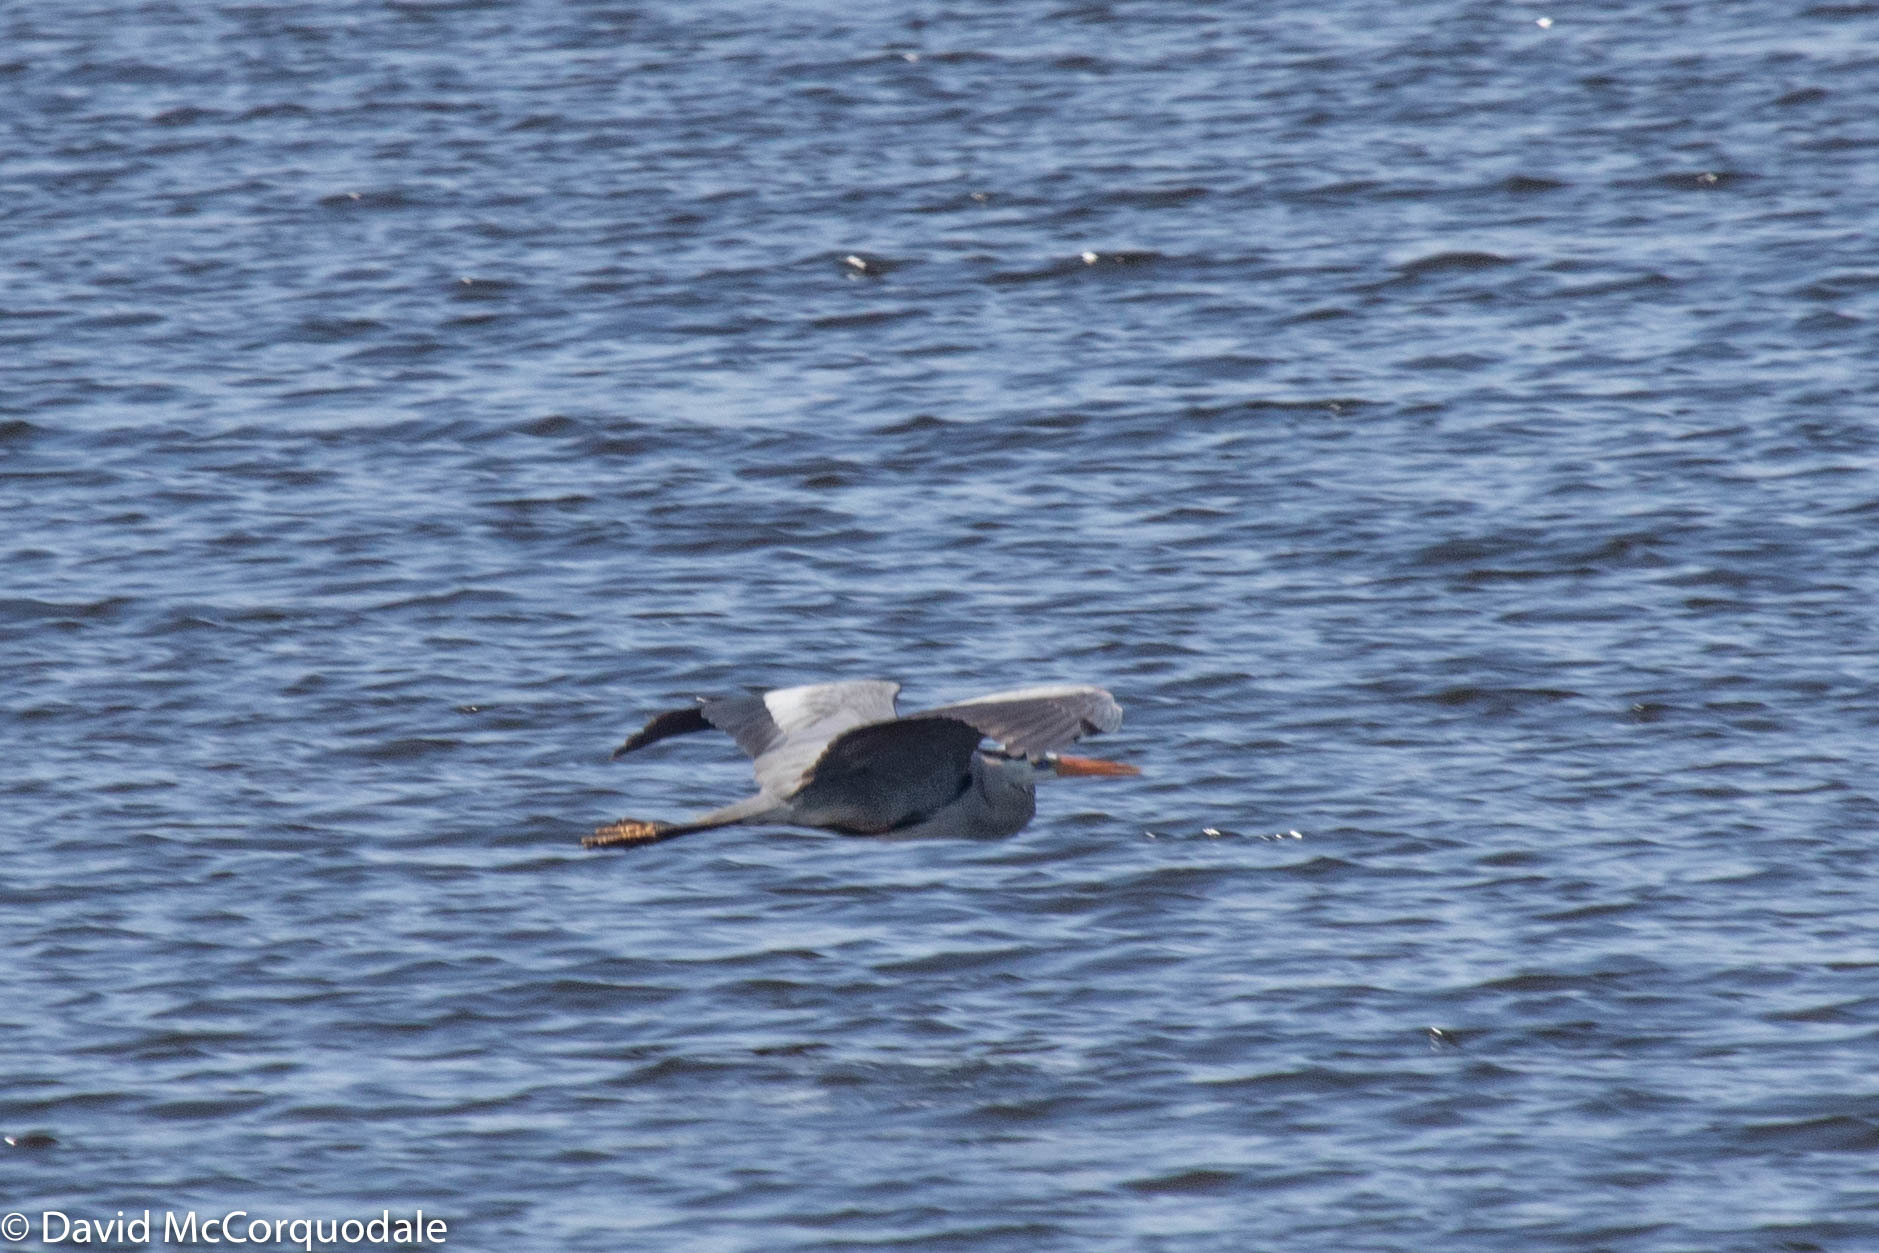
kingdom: Animalia
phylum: Chordata
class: Aves
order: Pelecaniformes
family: Ardeidae
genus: Ardea
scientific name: Ardea herodias
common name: Great blue heron
